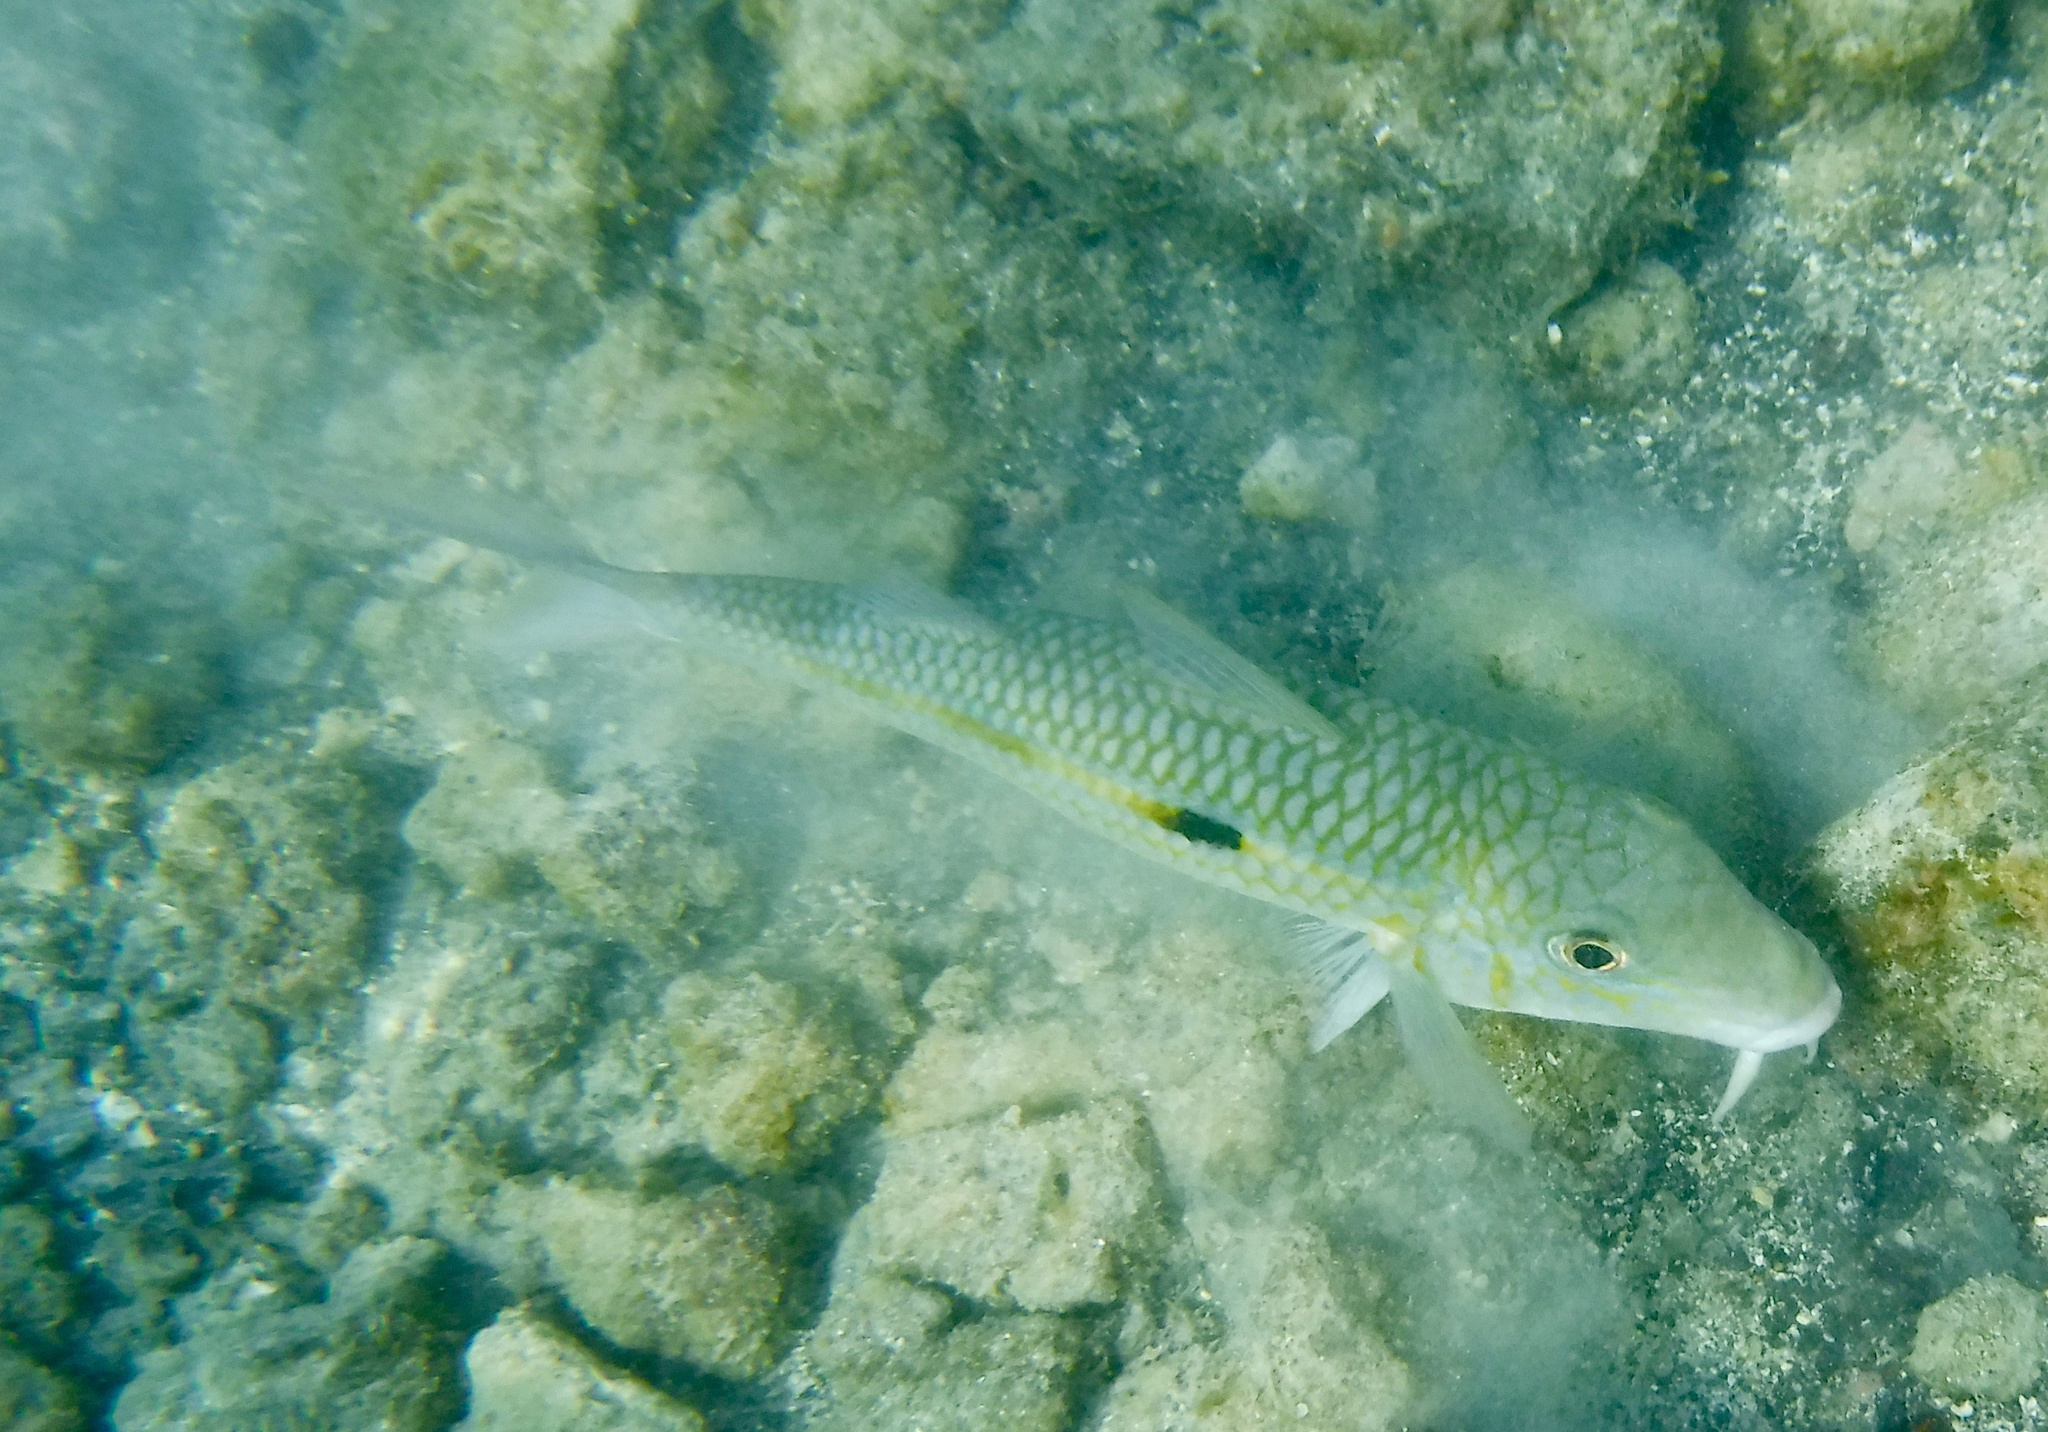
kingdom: Animalia
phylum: Chordata
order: Perciformes
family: Mullidae
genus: Mulloidichthys
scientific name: Mulloidichthys flavolineatus
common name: Yellowstripe goatfish
